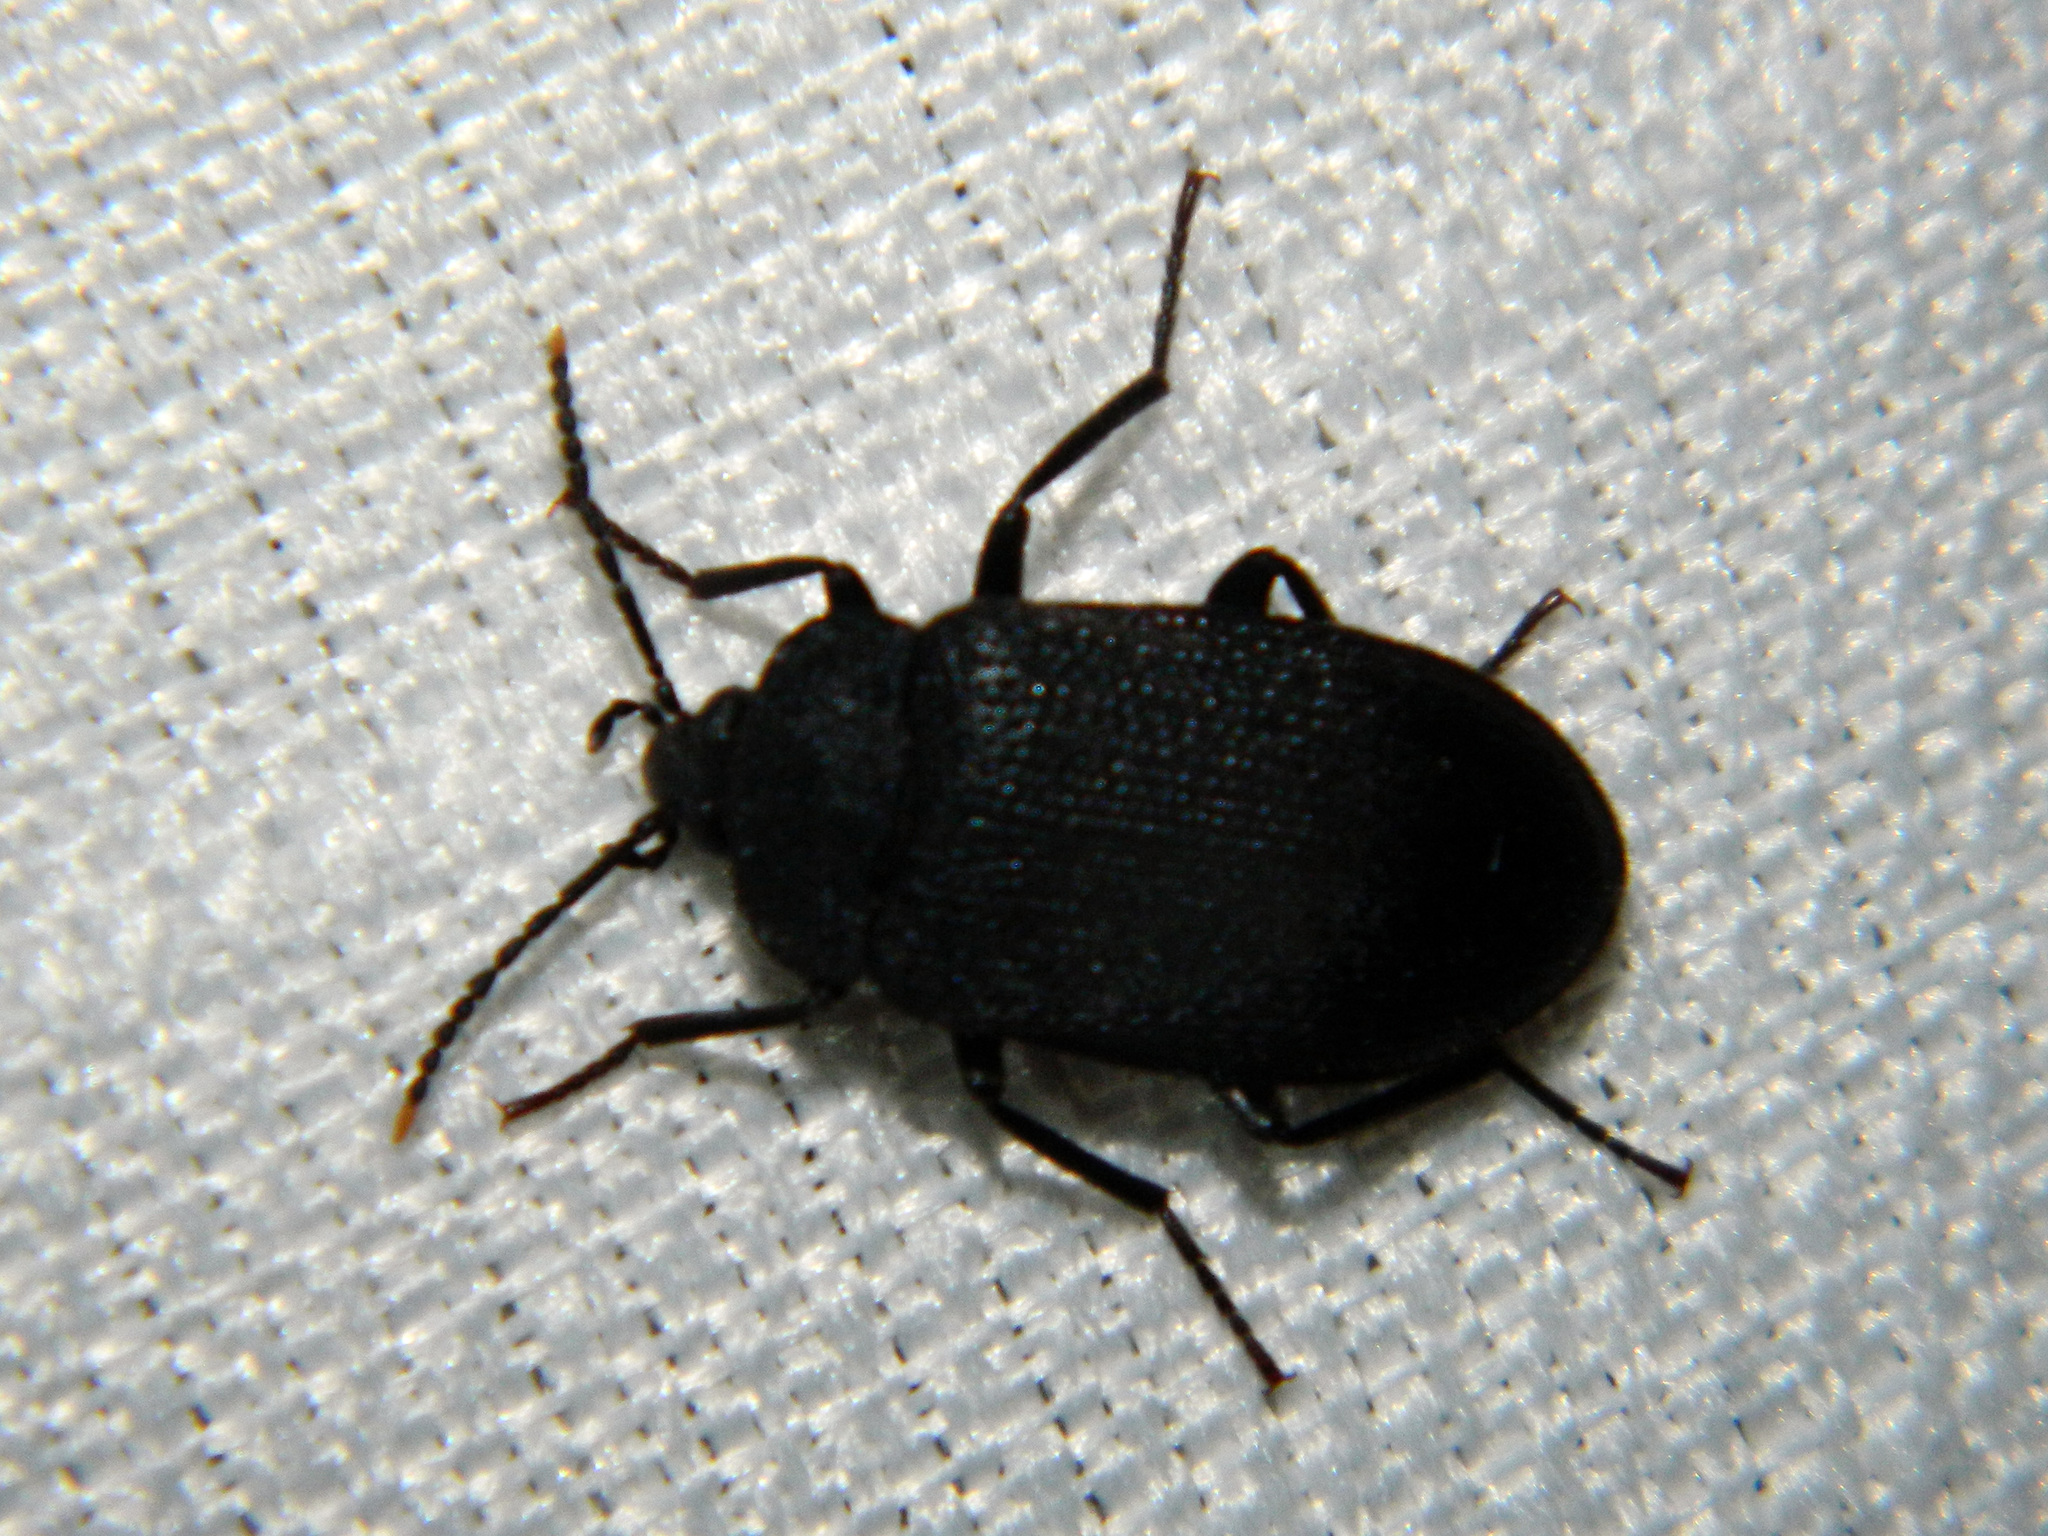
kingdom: Animalia
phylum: Arthropoda
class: Insecta
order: Coleoptera
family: Tetratomidae
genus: Penthe
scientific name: Penthe pimelia
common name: Velvety bark beetle
